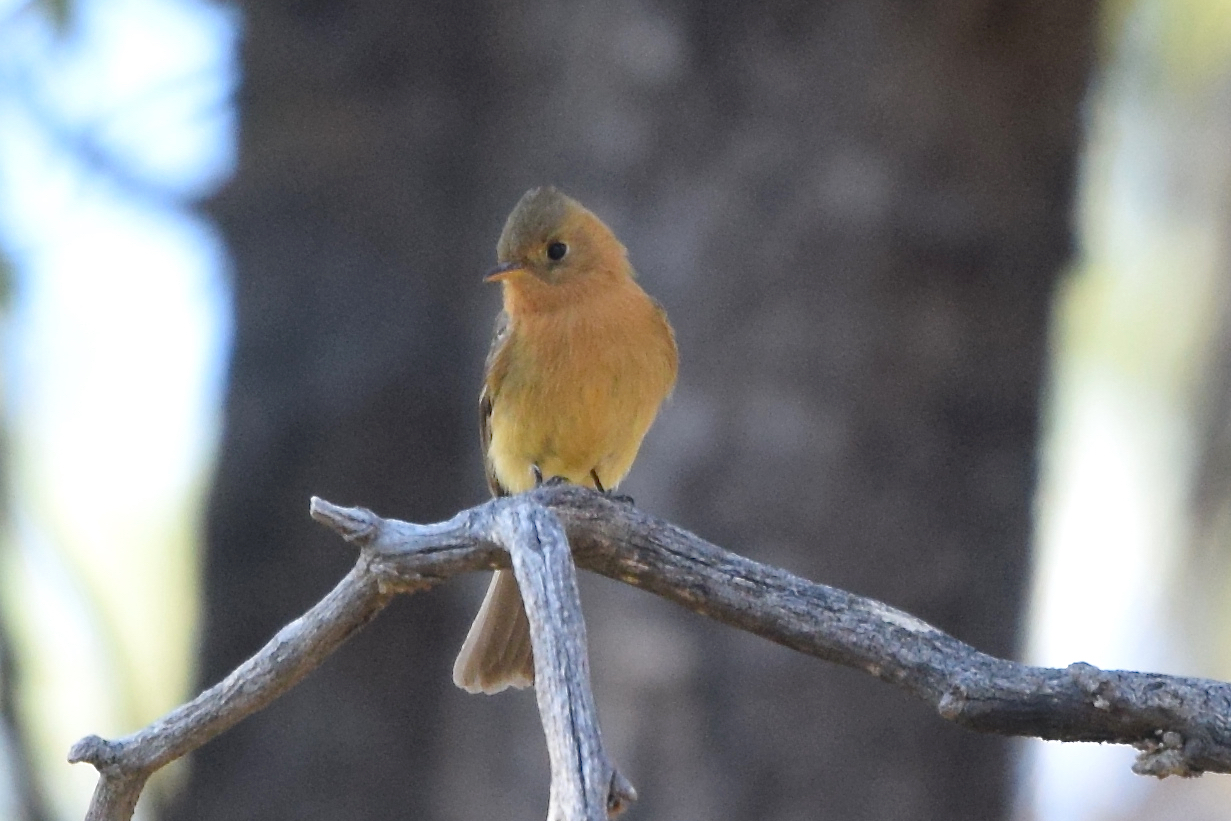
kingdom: Animalia
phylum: Chordata
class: Aves
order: Passeriformes
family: Tyrannidae
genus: Mitrephanes
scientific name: Mitrephanes phaeocercus
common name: Northern tufted flycatcher
